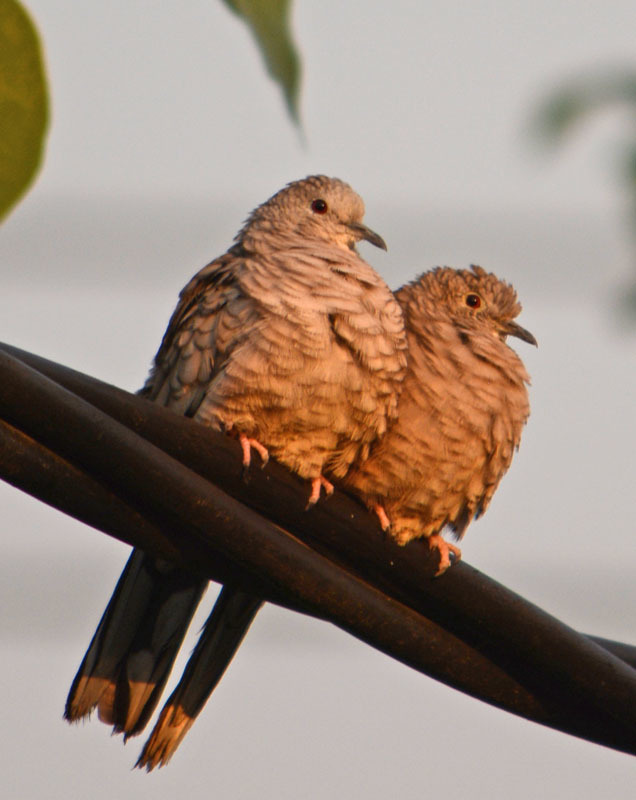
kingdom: Animalia
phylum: Chordata
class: Aves
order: Columbiformes
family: Columbidae
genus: Columbina
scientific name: Columbina inca
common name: Inca dove
